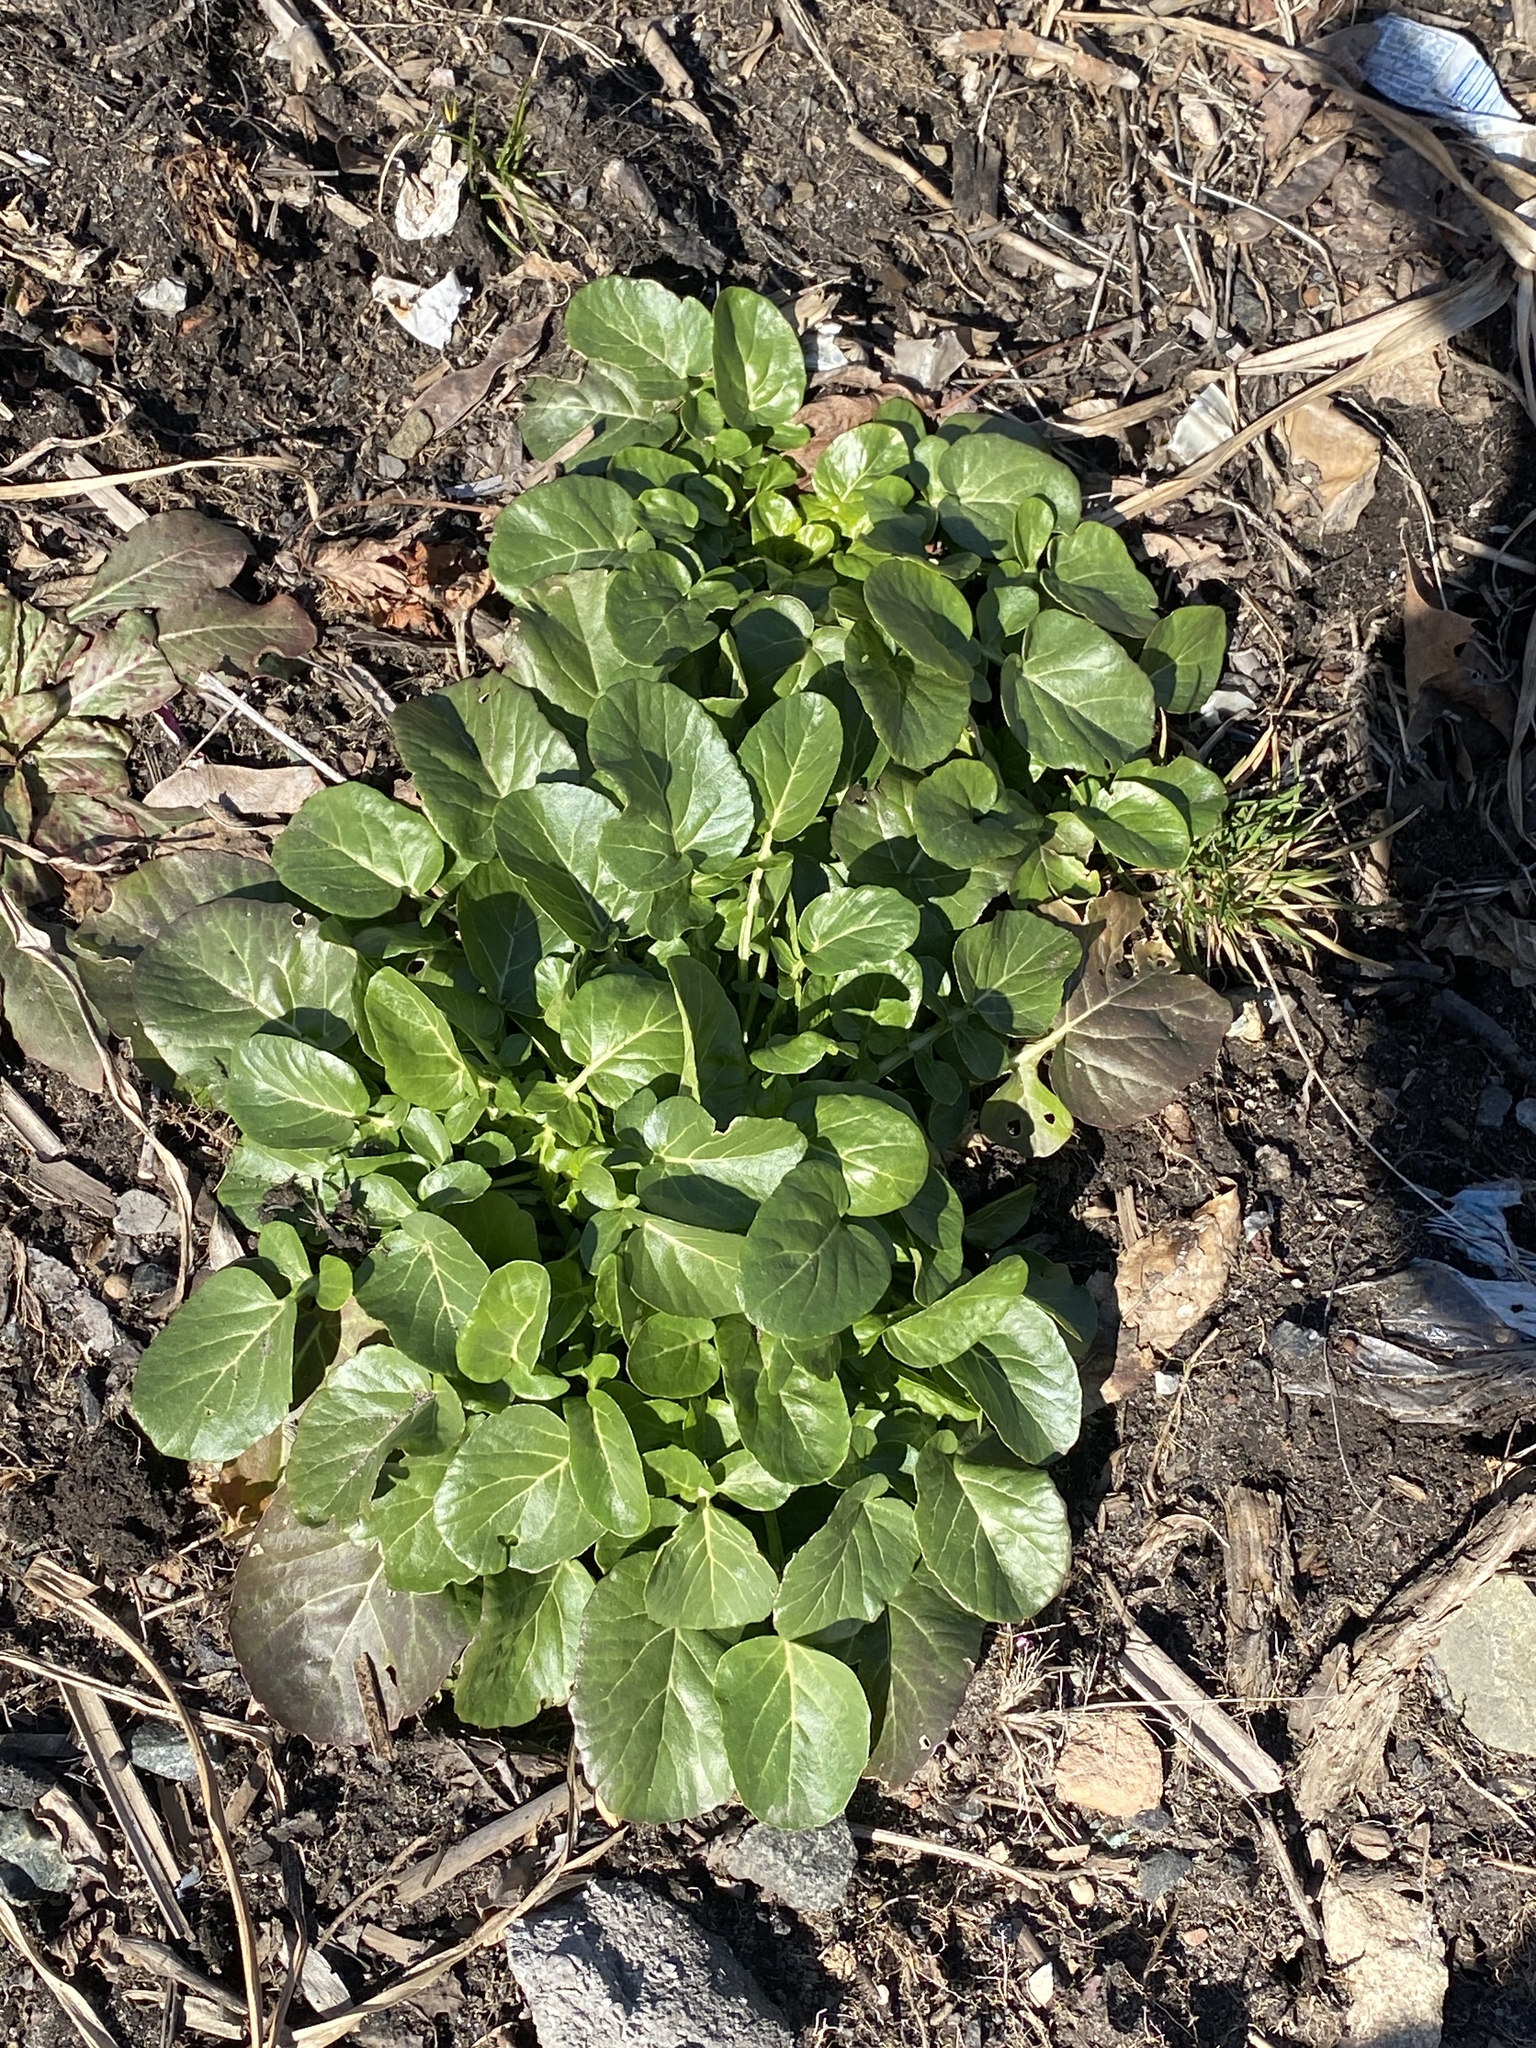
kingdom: Plantae
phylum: Tracheophyta
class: Magnoliopsida
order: Brassicales
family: Brassicaceae
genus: Barbarea
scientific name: Barbarea vulgaris
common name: Cressy-greens
